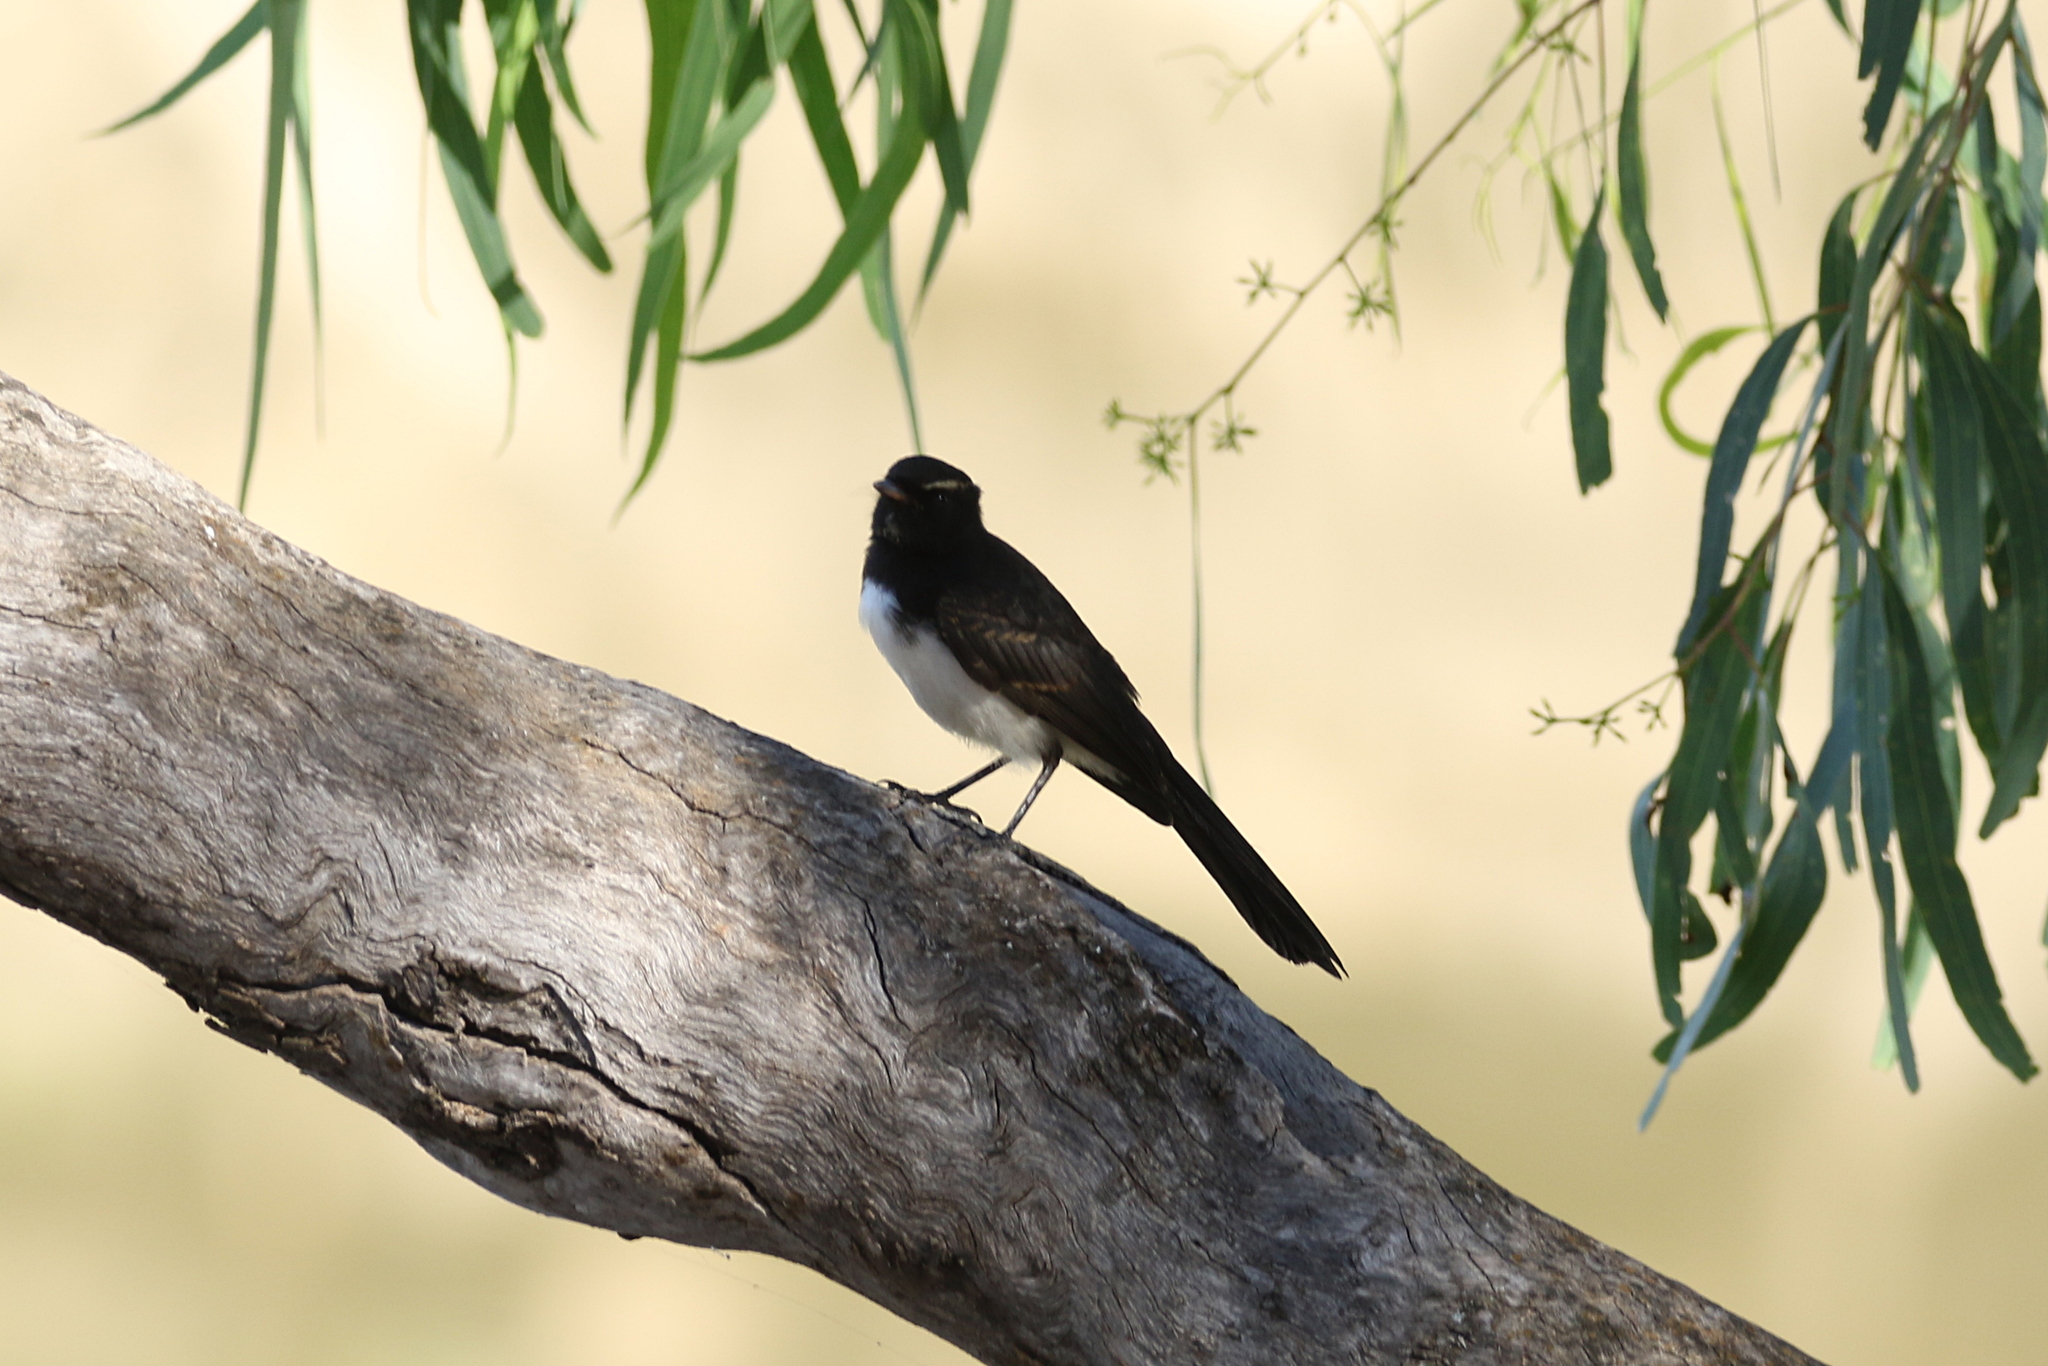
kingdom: Animalia
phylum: Chordata
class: Aves
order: Passeriformes
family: Rhipiduridae
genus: Rhipidura
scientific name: Rhipidura leucophrys
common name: Willie wagtail
